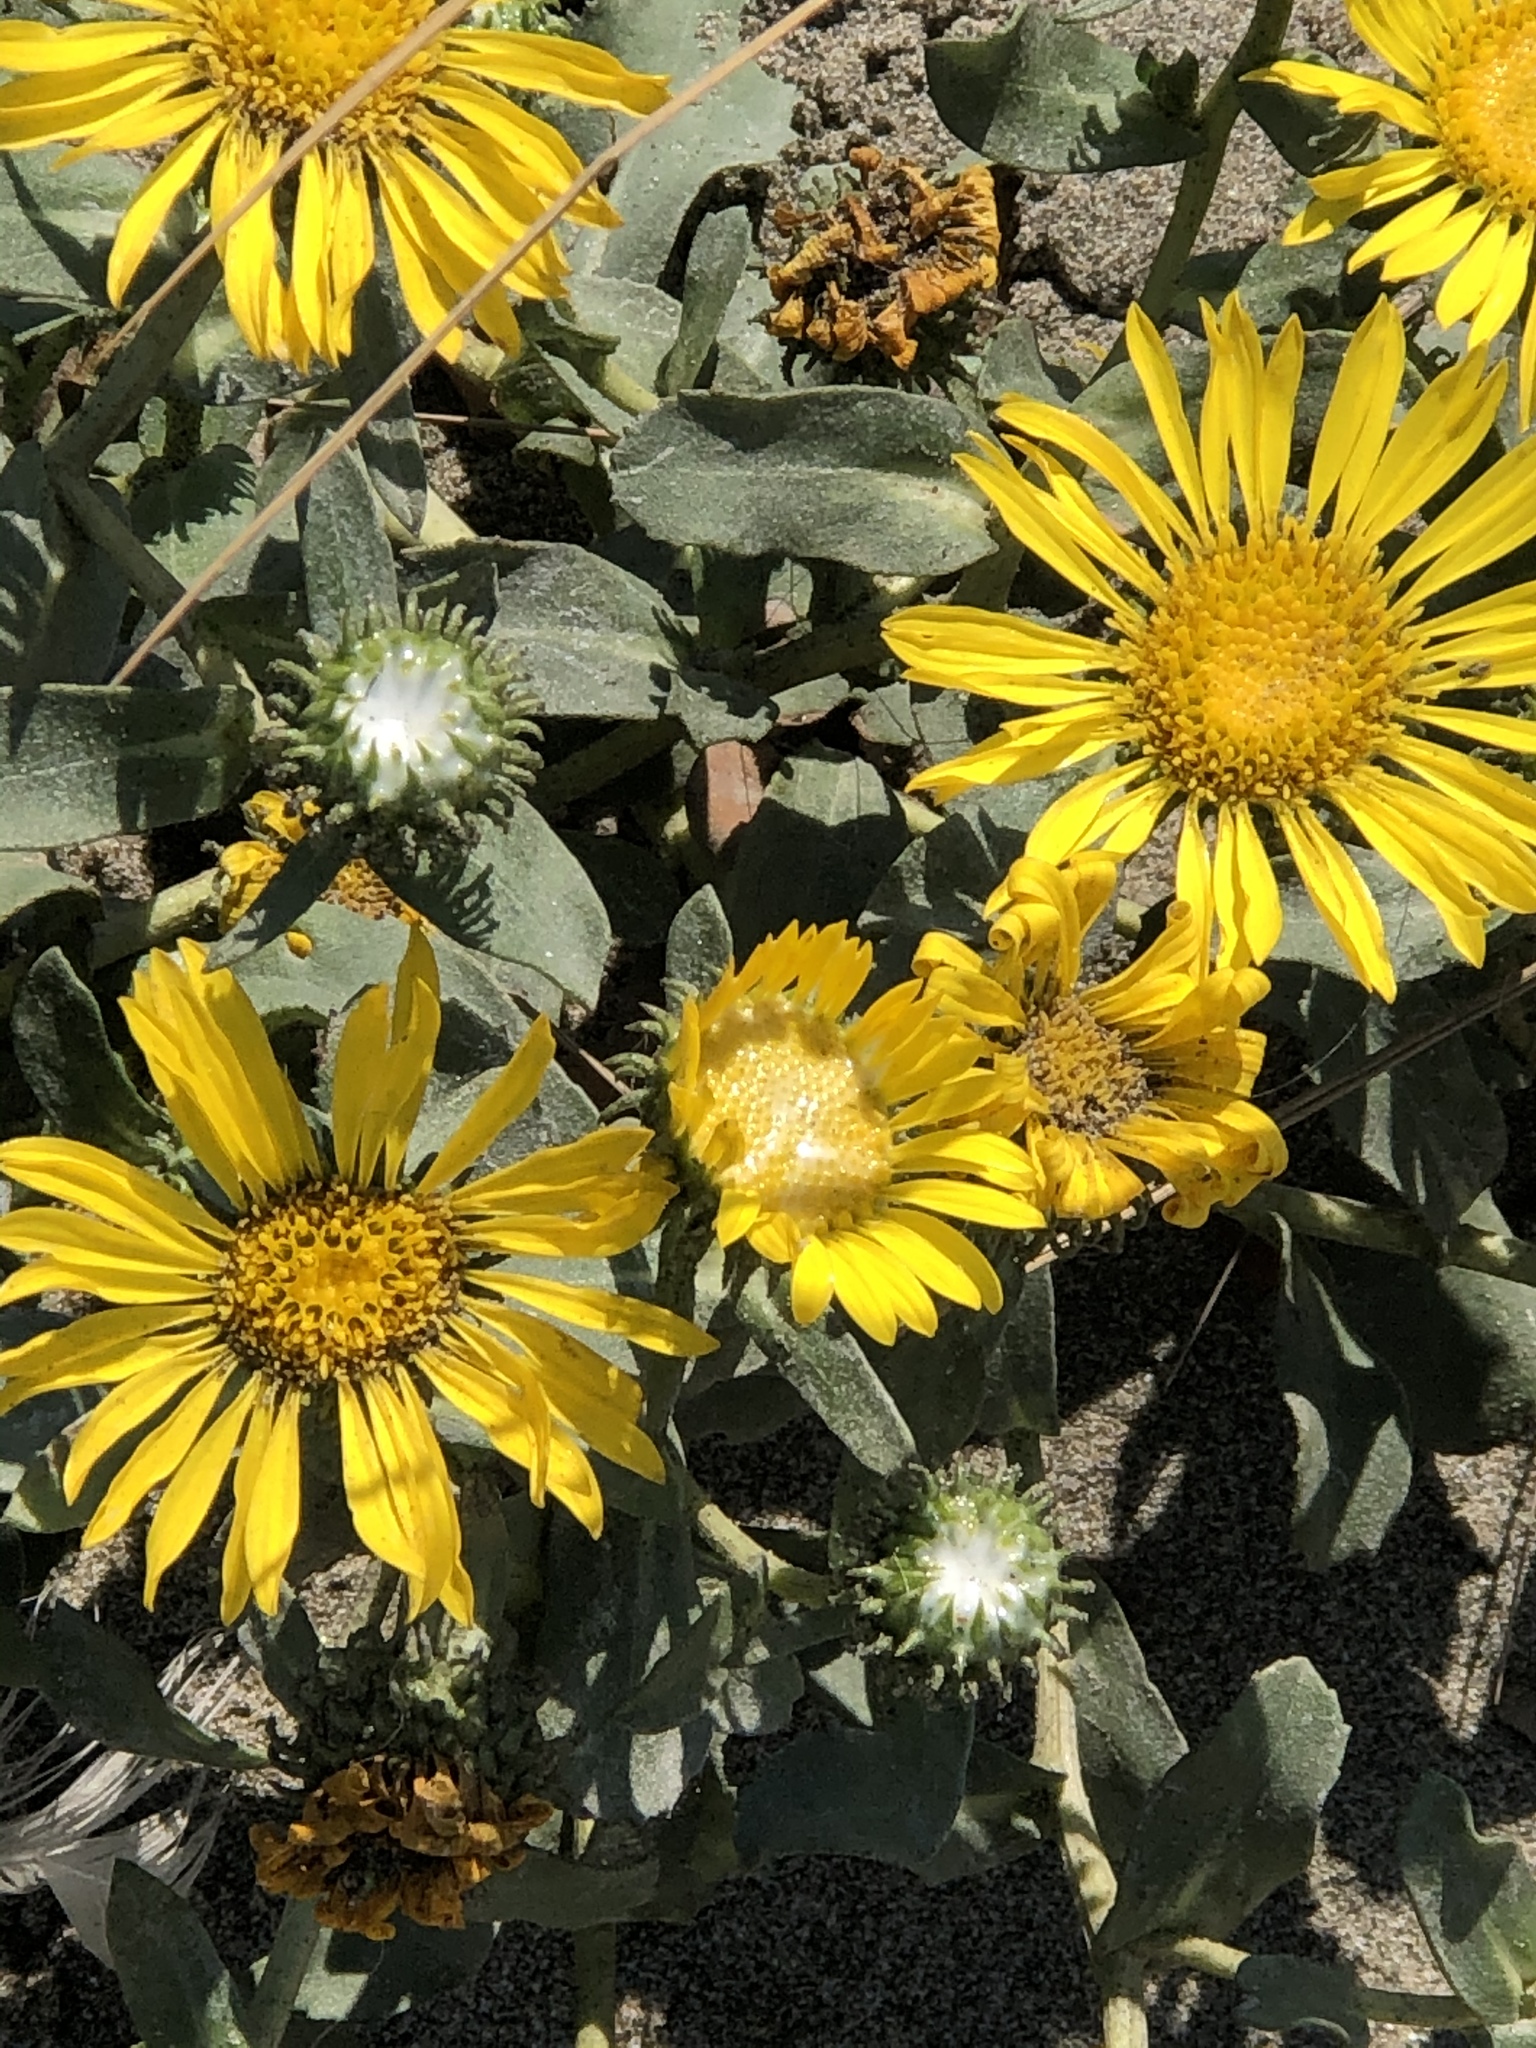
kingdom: Plantae
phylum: Tracheophyta
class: Magnoliopsida
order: Asterales
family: Asteraceae
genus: Grindelia
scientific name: Grindelia hirsutula
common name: Hairy gumweed
